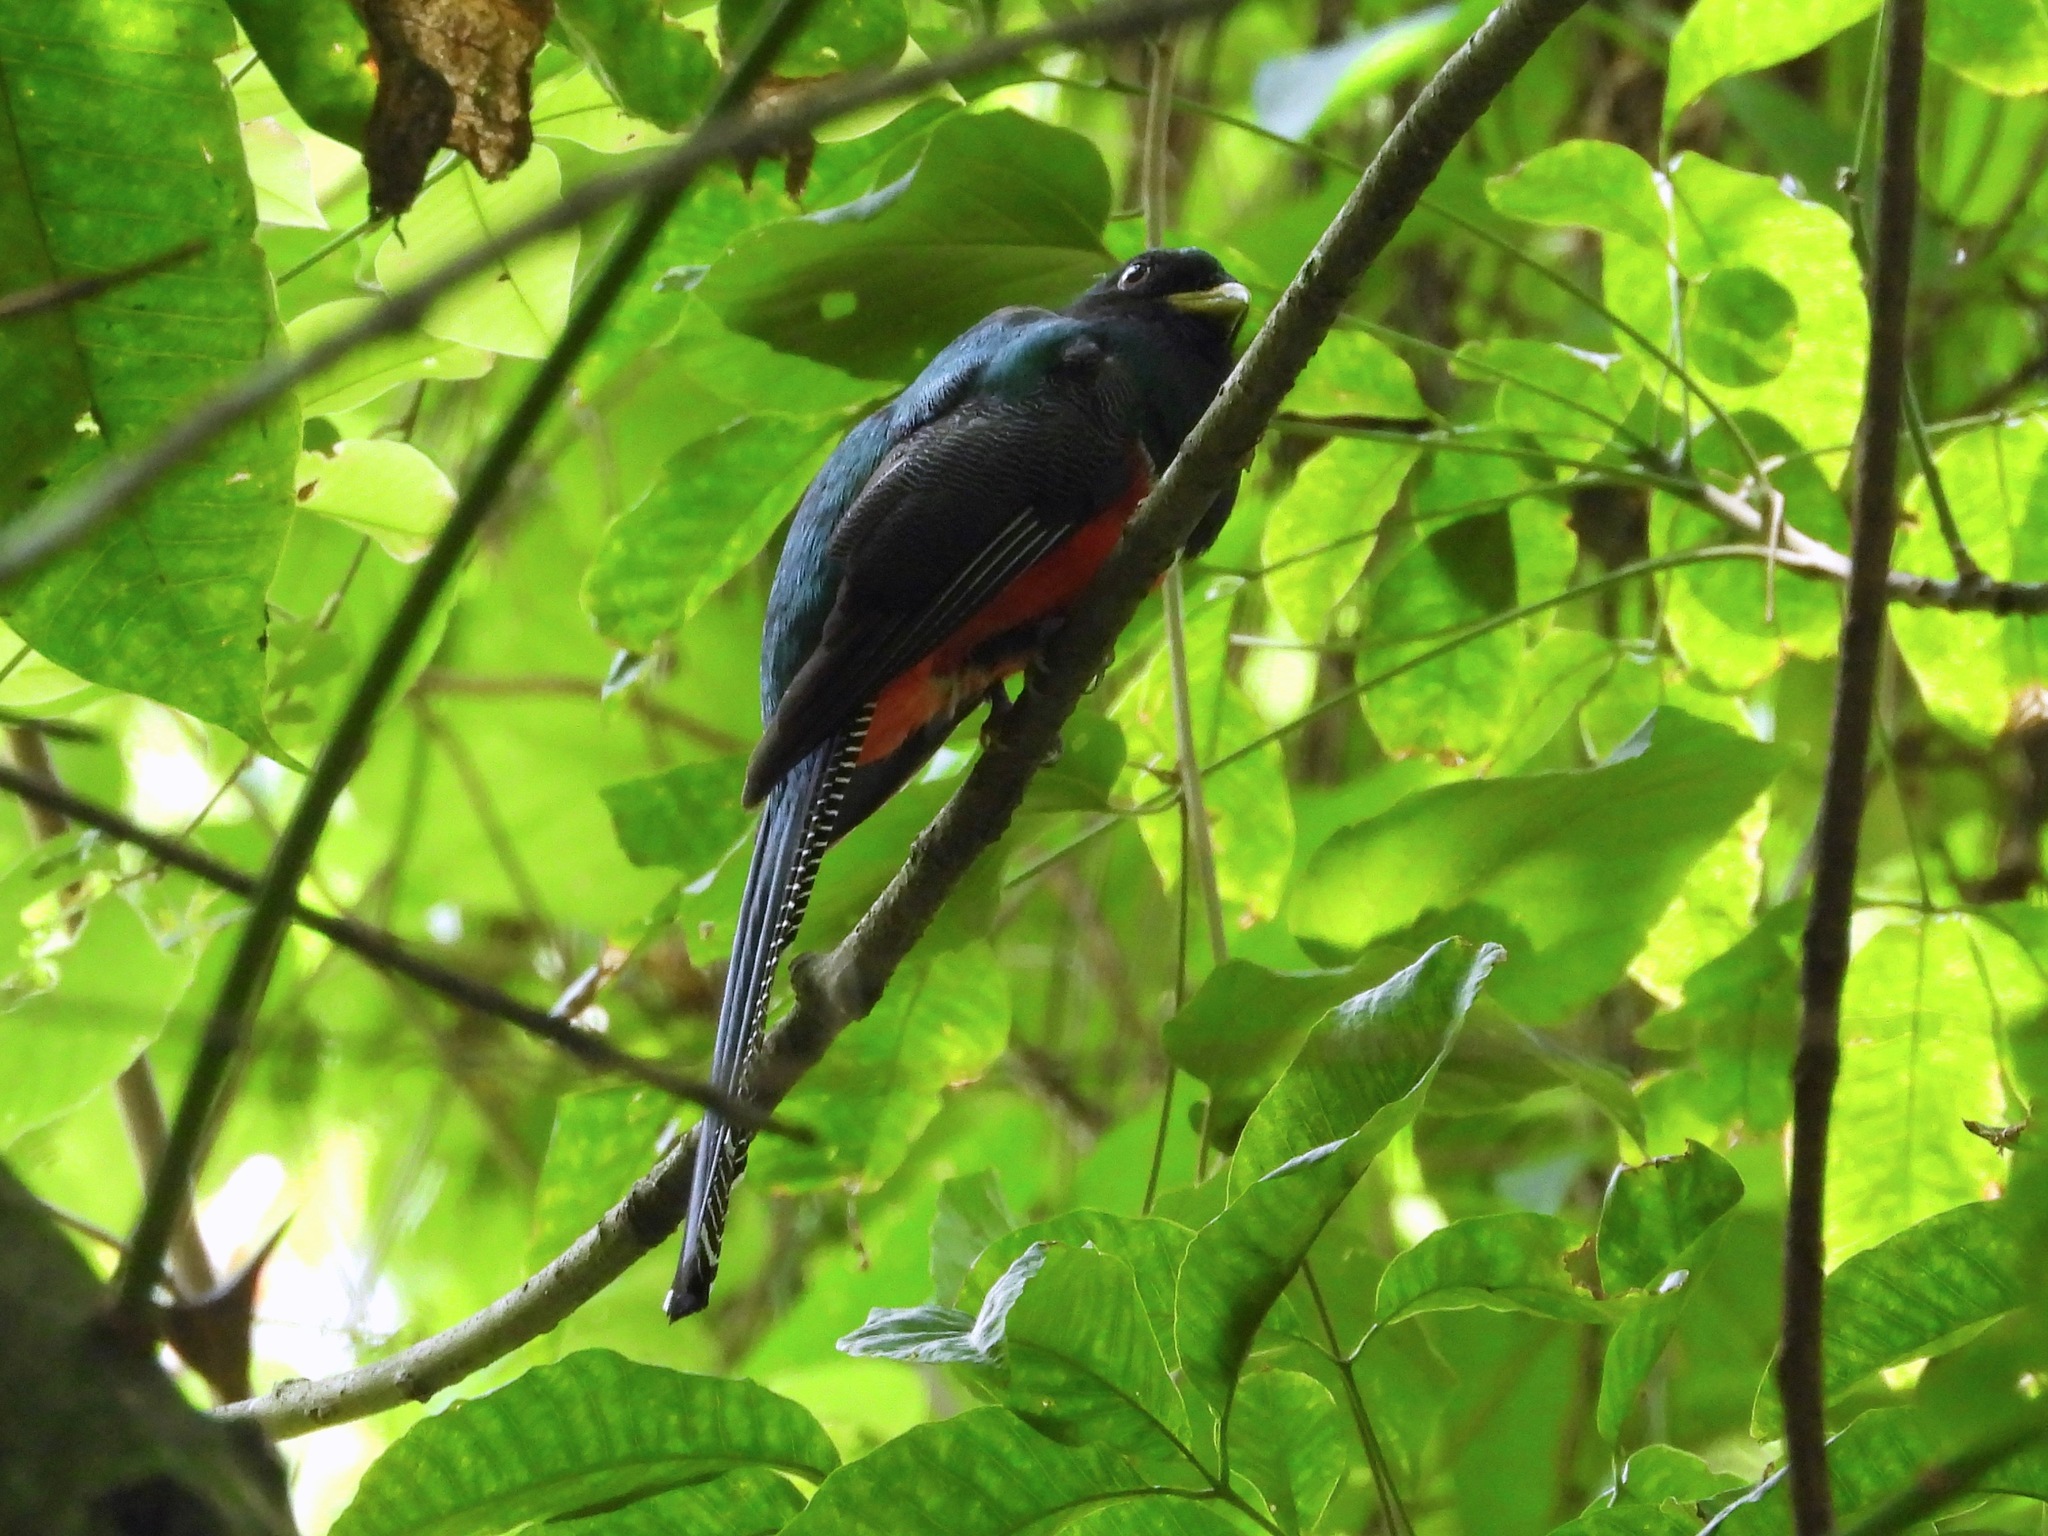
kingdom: Animalia
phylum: Chordata
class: Aves
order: Trogoniformes
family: Trogonidae
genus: Trogon
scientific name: Trogon collaris
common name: Collared trogon
